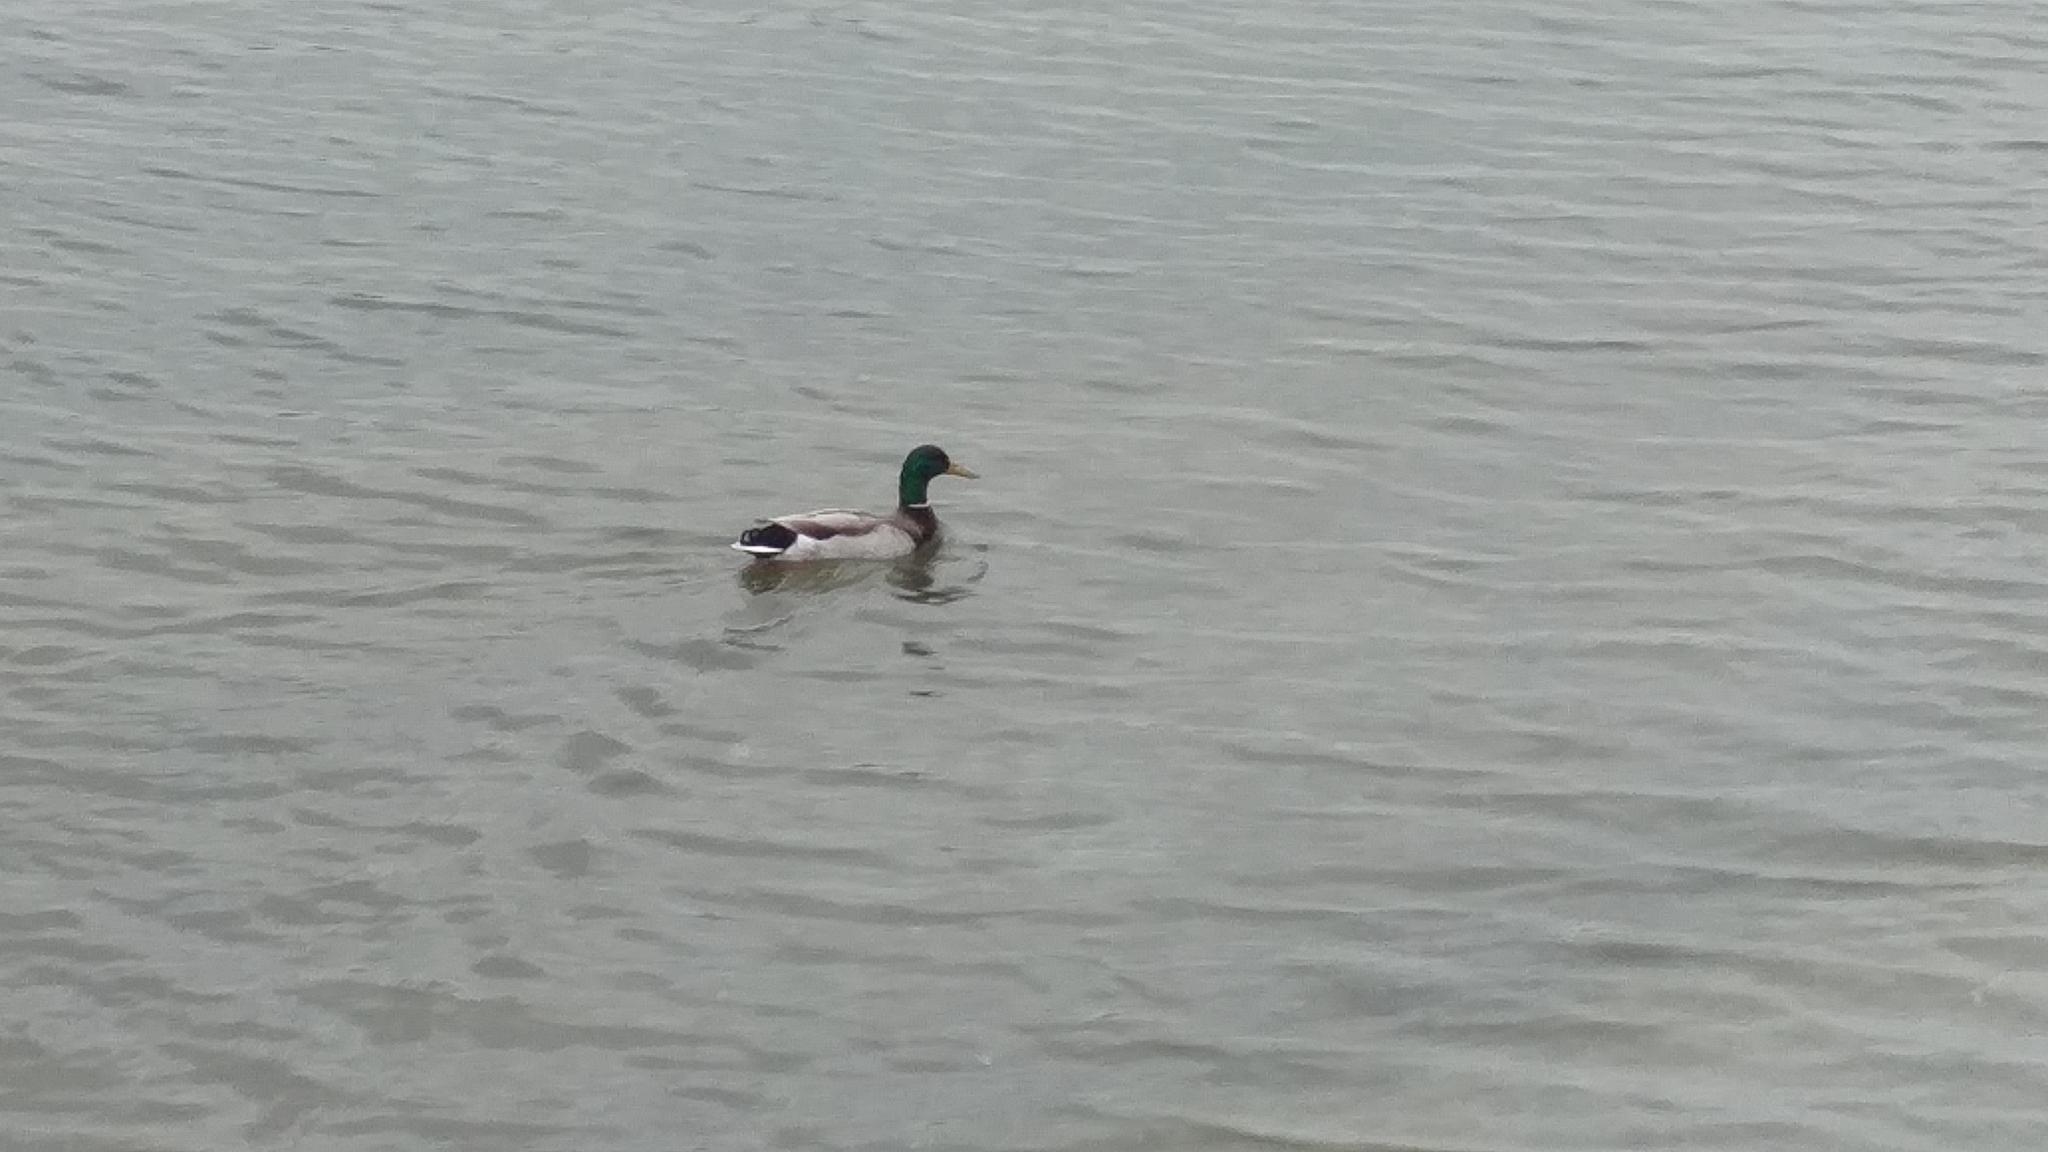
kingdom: Animalia
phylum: Chordata
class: Aves
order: Anseriformes
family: Anatidae
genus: Anas
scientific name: Anas platyrhynchos
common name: Mallard
